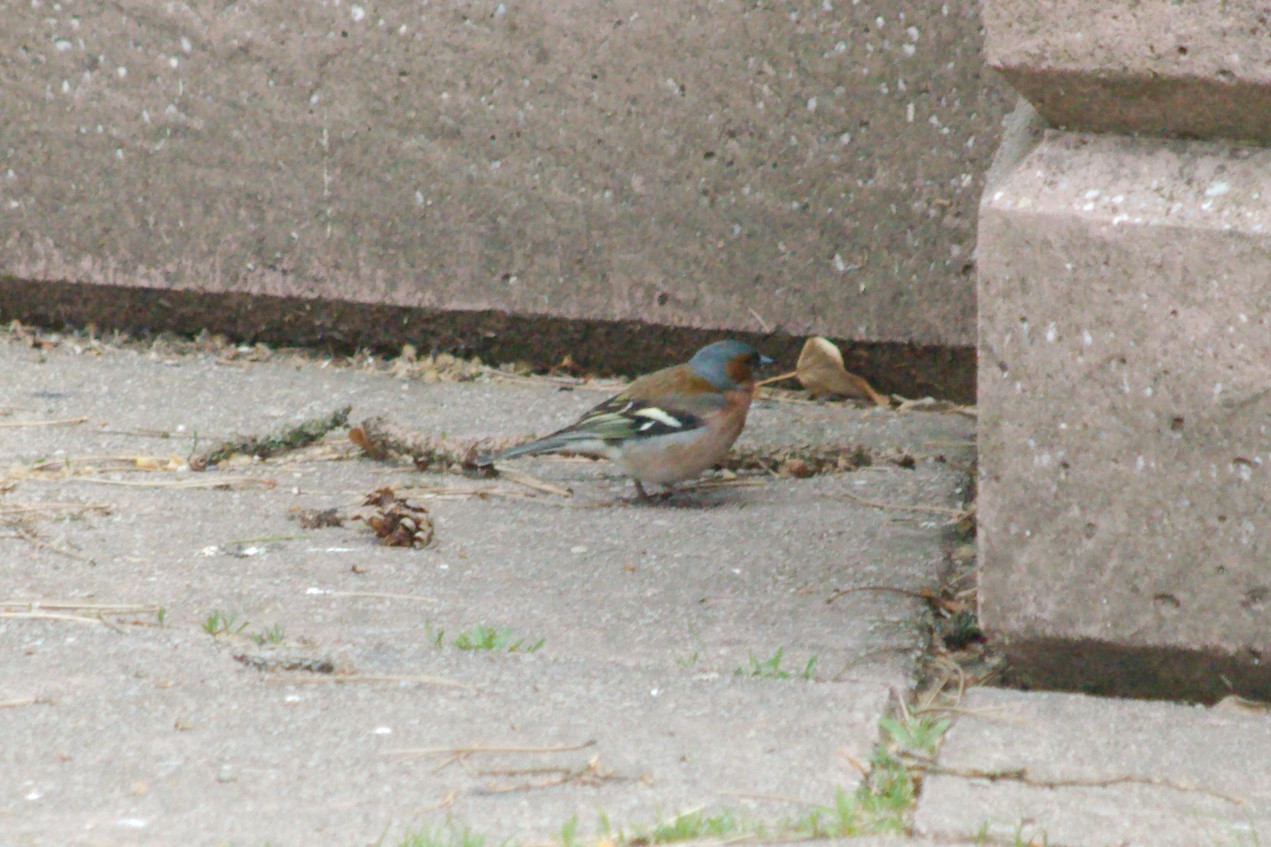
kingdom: Animalia
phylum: Chordata
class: Aves
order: Passeriformes
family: Fringillidae
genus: Fringilla
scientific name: Fringilla coelebs
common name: Common chaffinch
